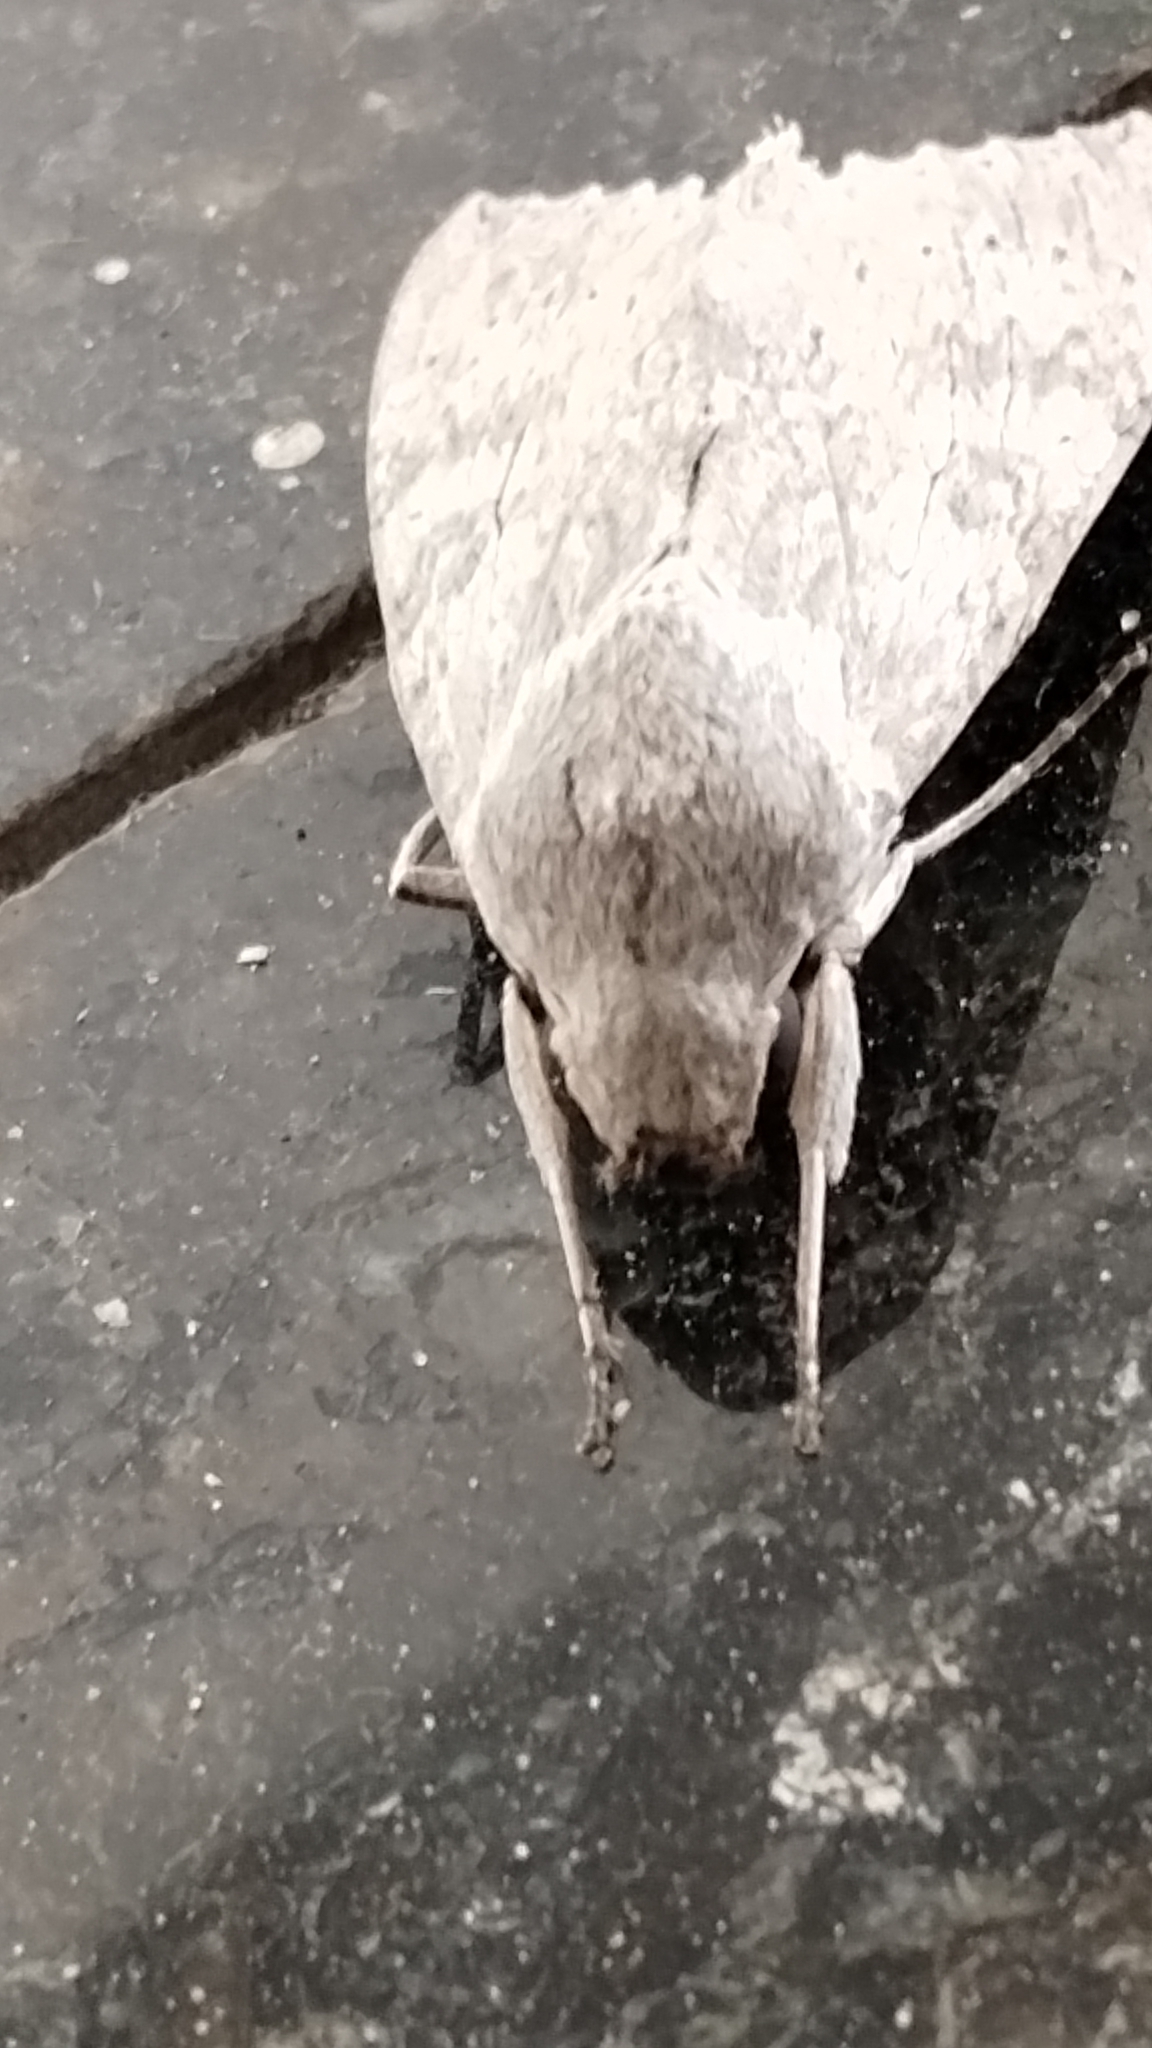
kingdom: Animalia
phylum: Arthropoda
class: Insecta
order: Lepidoptera
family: Sphingidae
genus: Erinnyis
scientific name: Erinnyis ello
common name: Ello sphinx
